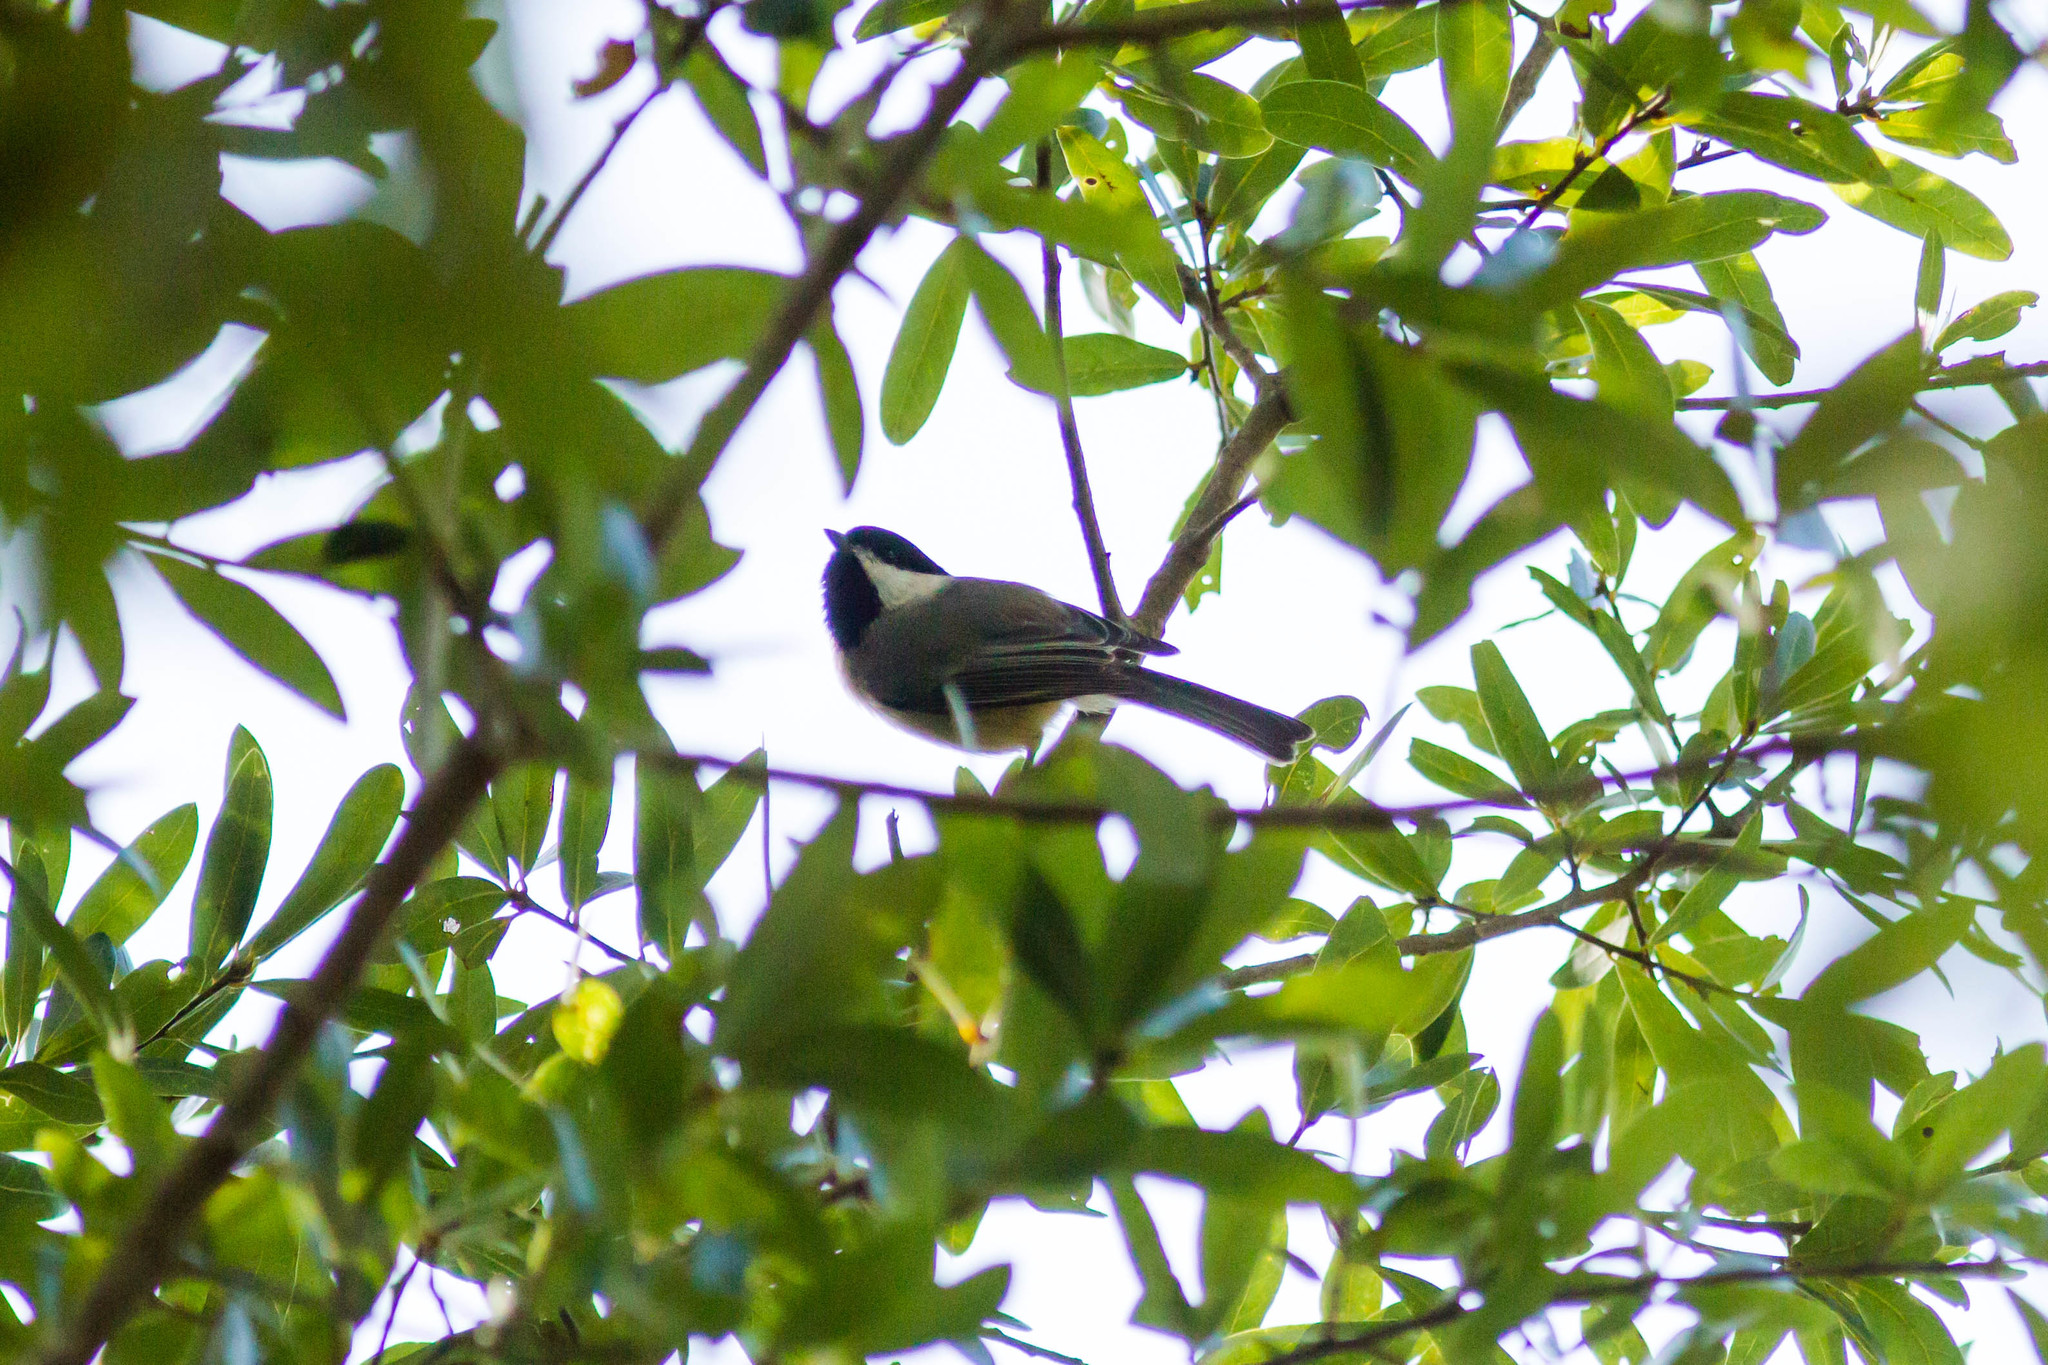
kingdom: Animalia
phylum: Chordata
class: Aves
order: Passeriformes
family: Paridae
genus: Poecile
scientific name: Poecile carolinensis
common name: Carolina chickadee
